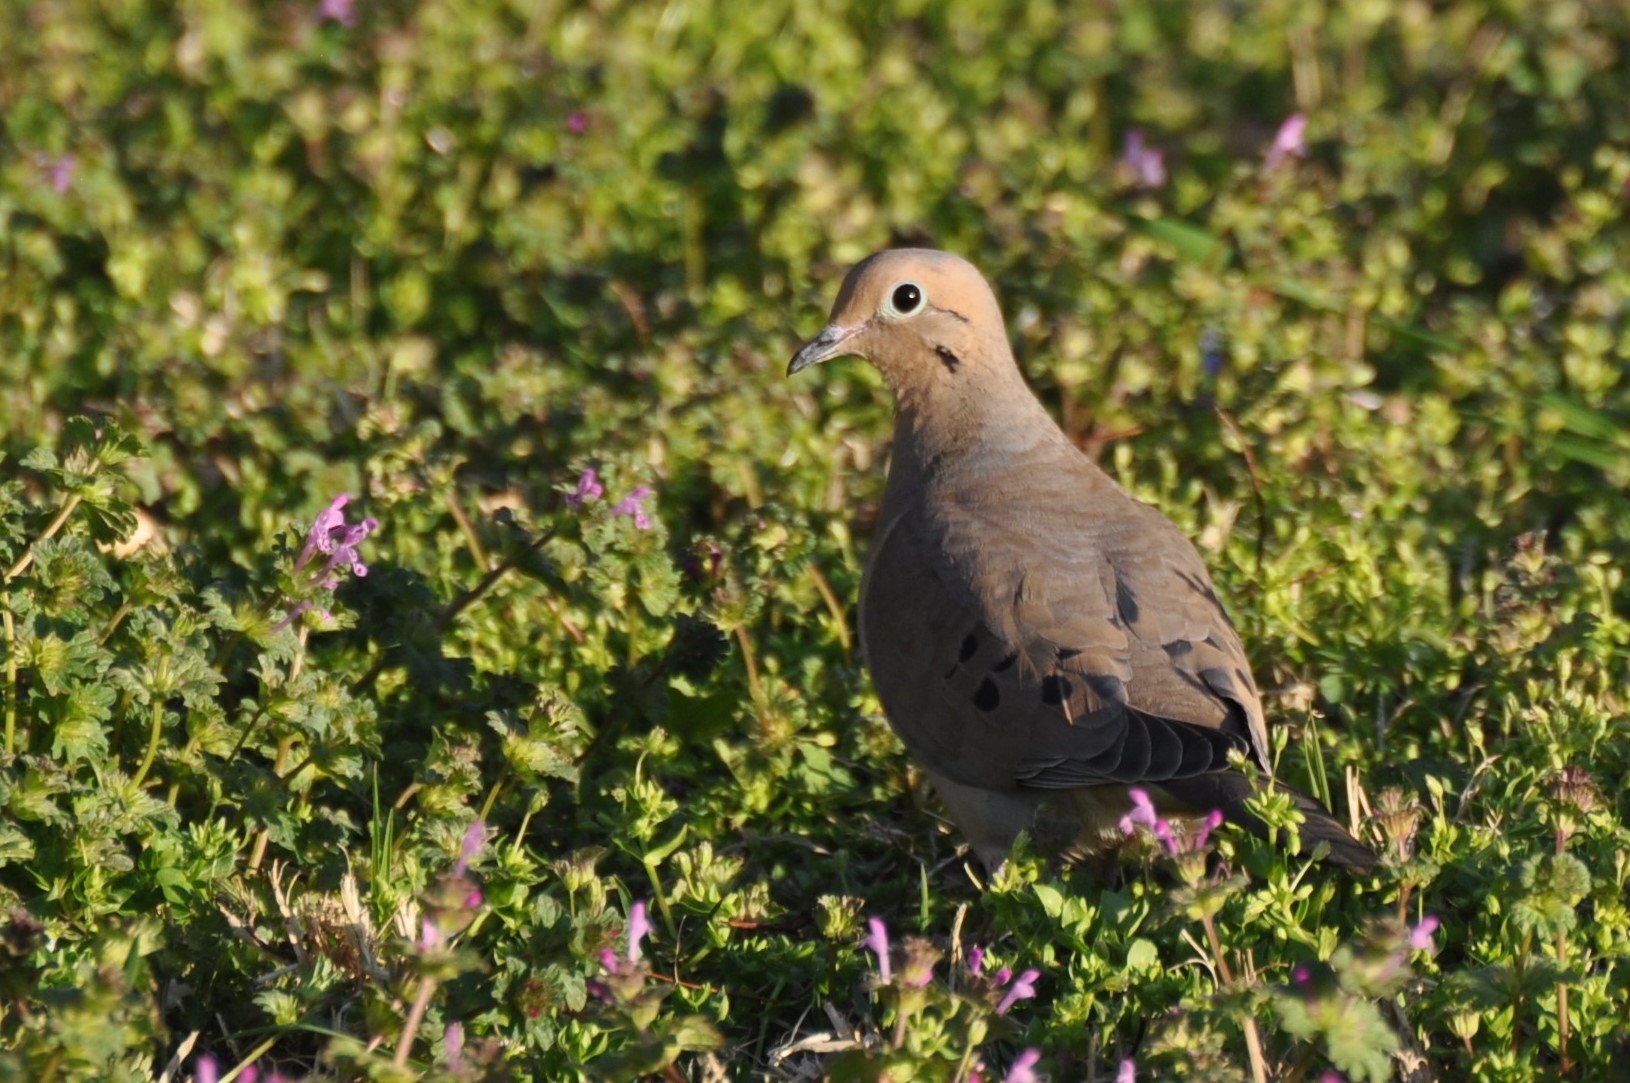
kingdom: Animalia
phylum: Chordata
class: Aves
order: Columbiformes
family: Columbidae
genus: Zenaida
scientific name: Zenaida macroura
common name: Mourning dove
